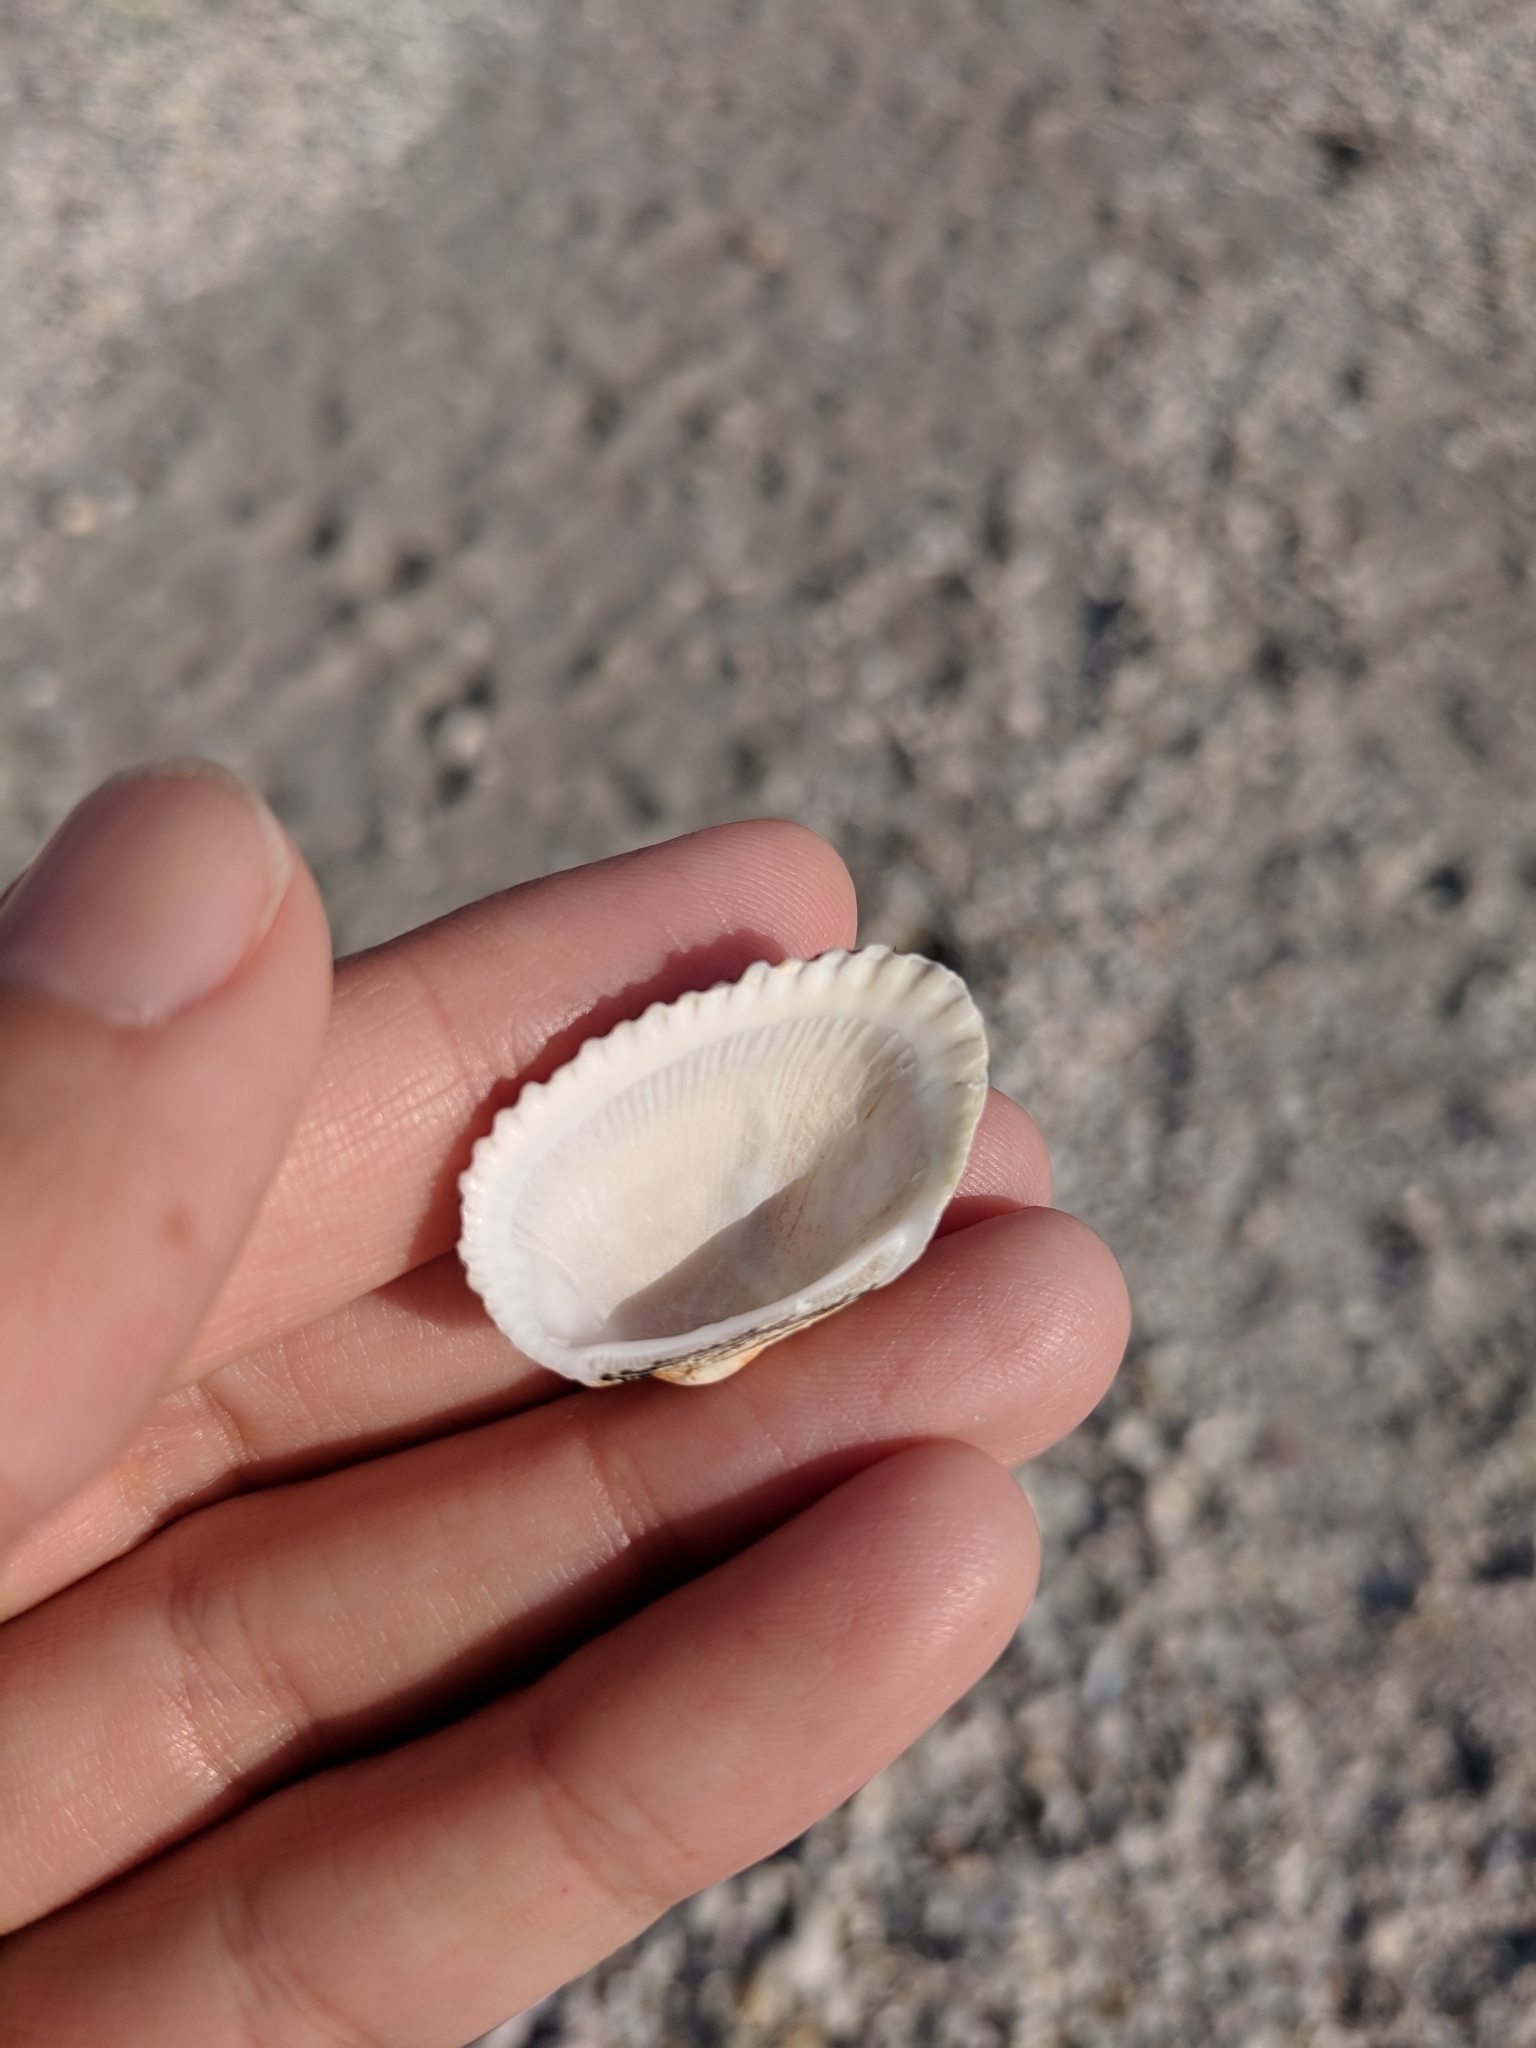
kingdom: Animalia
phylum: Mollusca
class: Bivalvia
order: Arcida
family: Arcidae
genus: Anadara
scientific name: Anadara transversa
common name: Transverse ark
